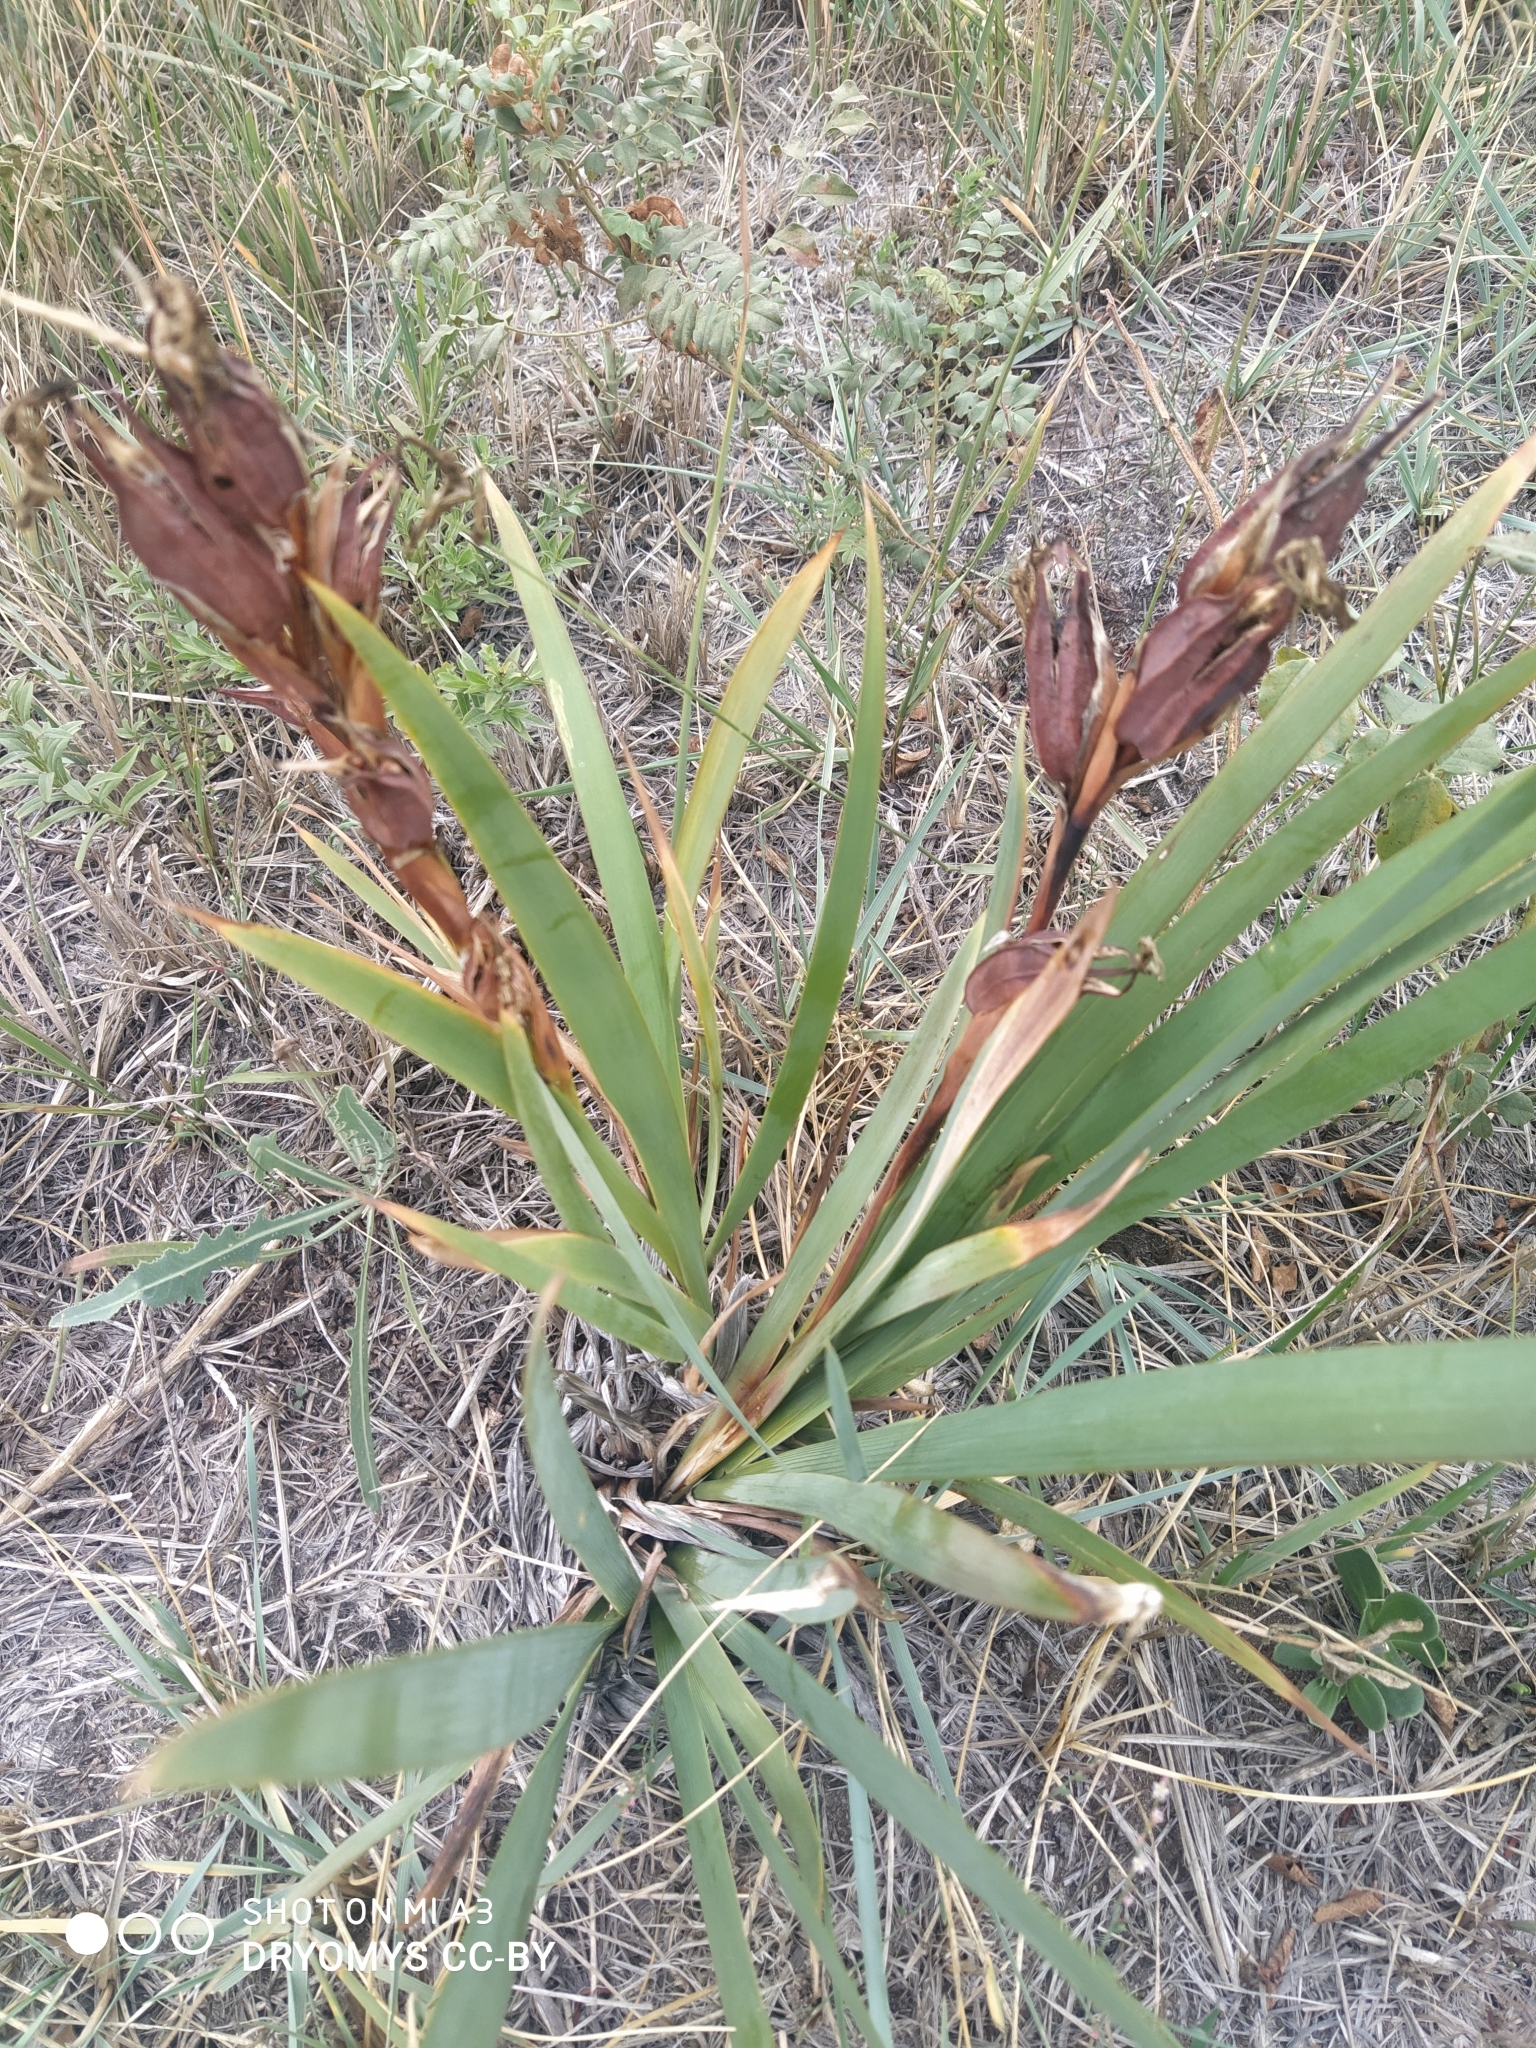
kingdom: Plantae
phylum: Tracheophyta
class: Liliopsida
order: Asparagales
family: Iridaceae
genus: Iris
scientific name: Iris halophila
